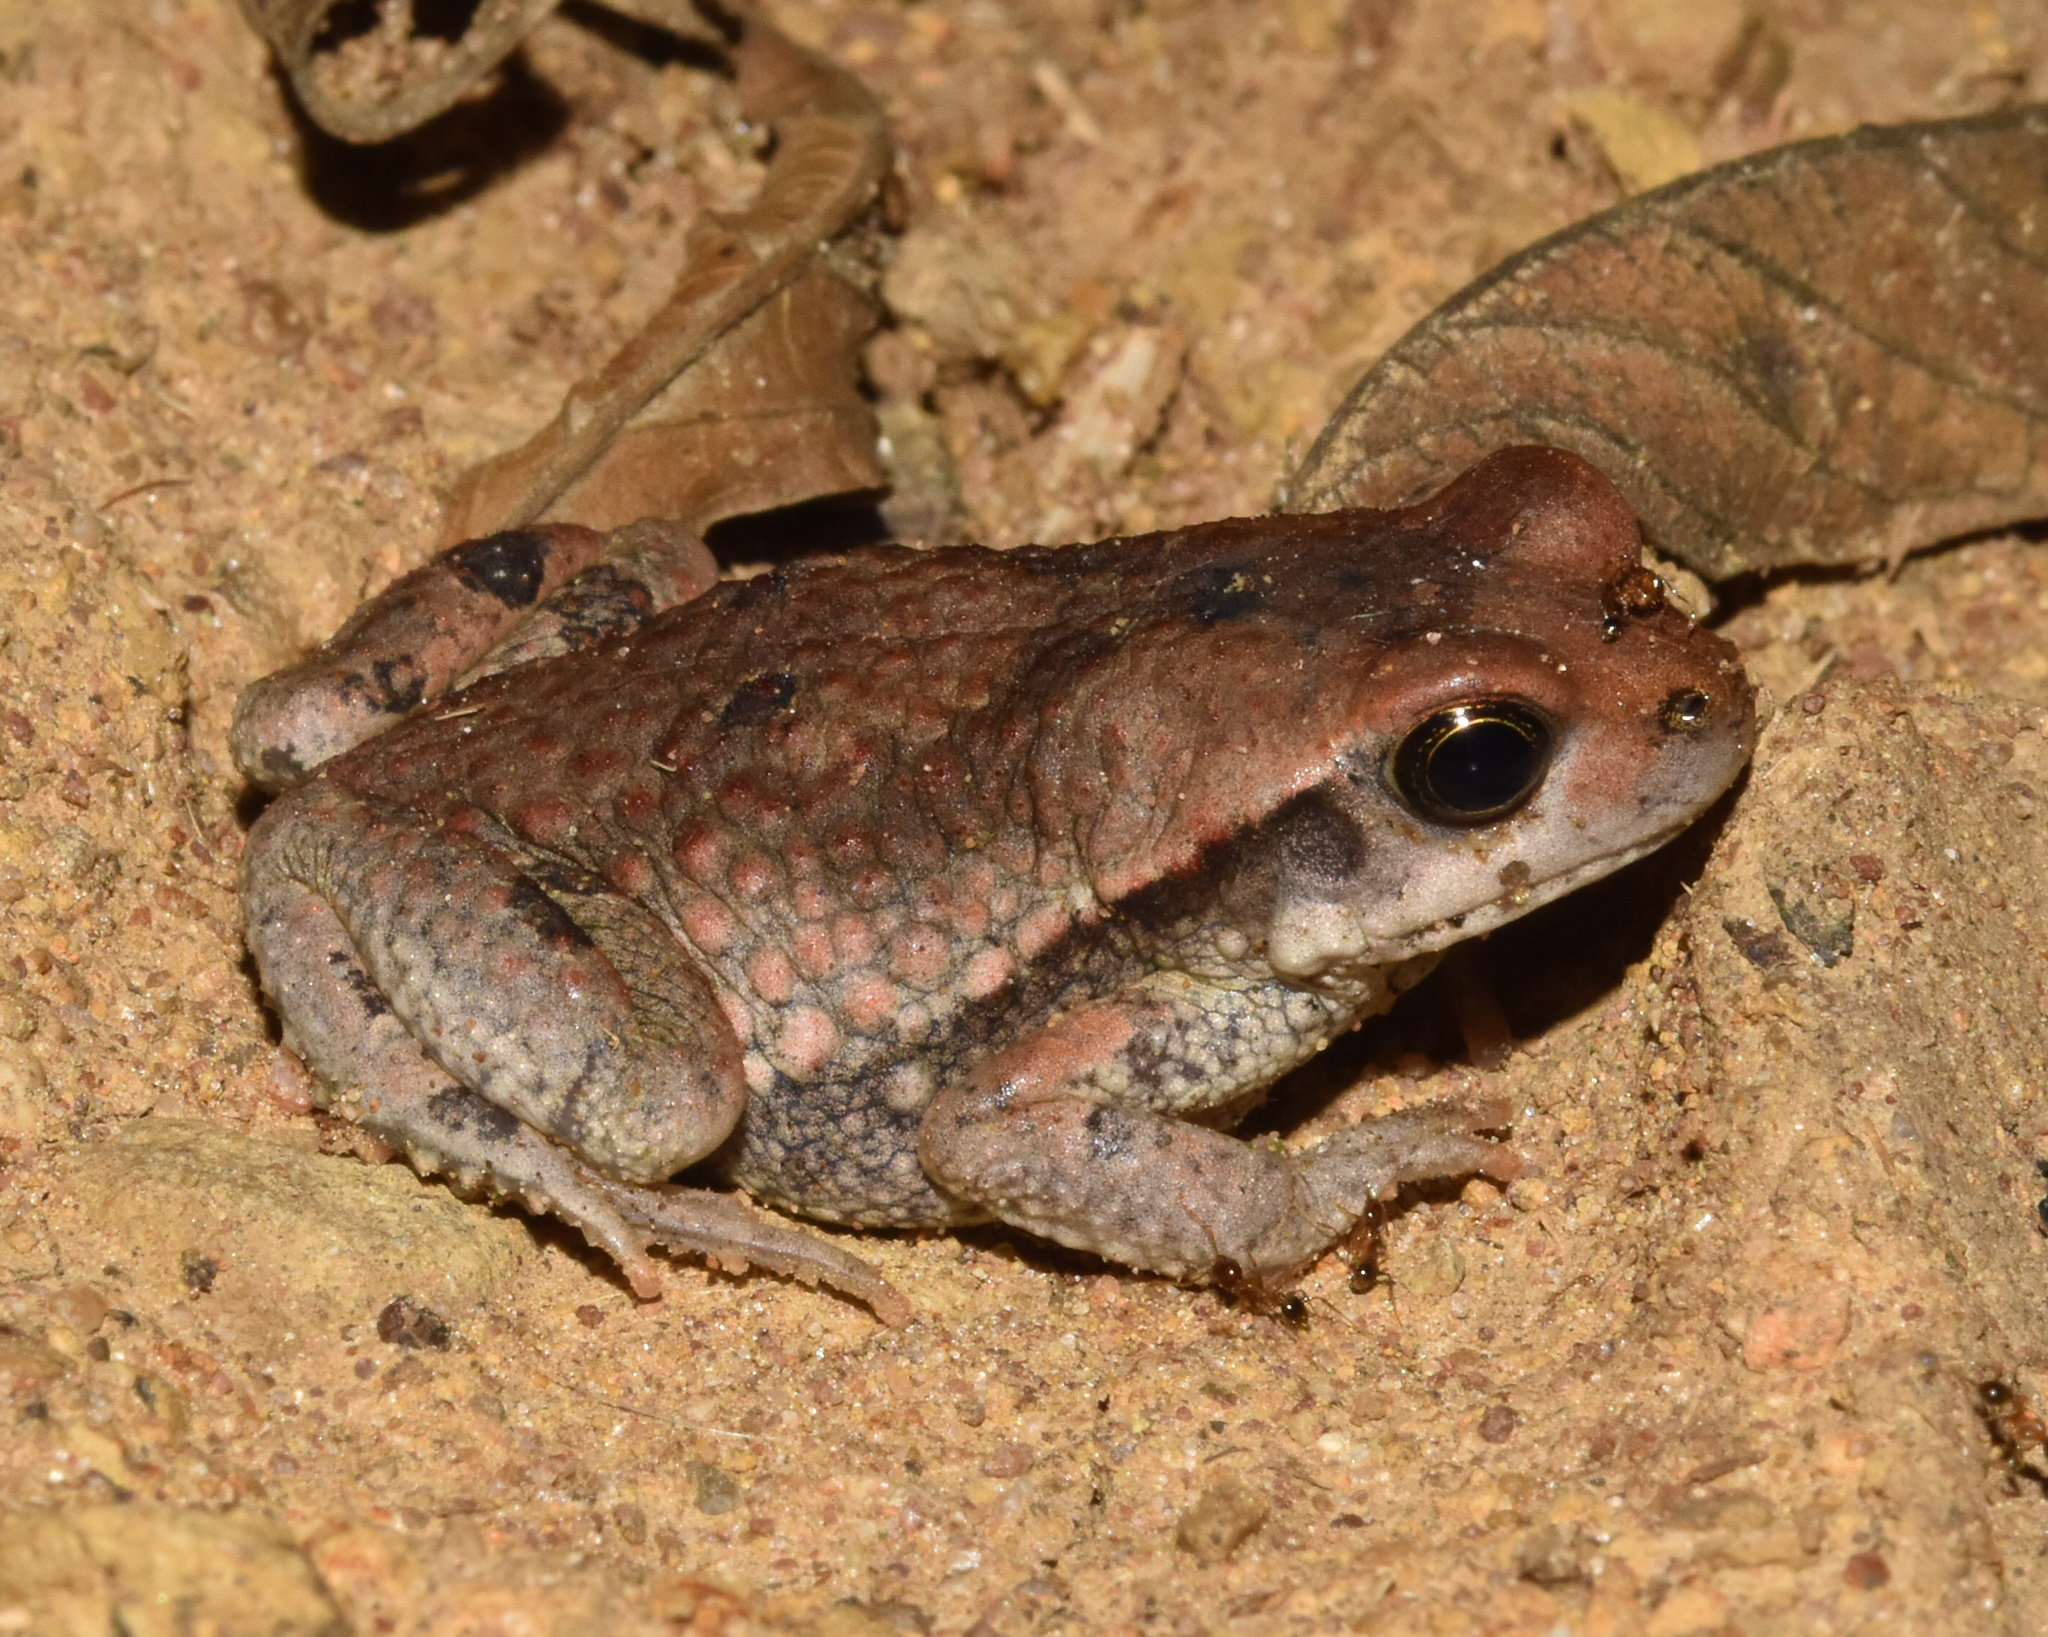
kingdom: Animalia
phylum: Chordata
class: Amphibia
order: Anura
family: Bufonidae
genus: Schismaderma
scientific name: Schismaderma carens
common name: African split-skin toad
